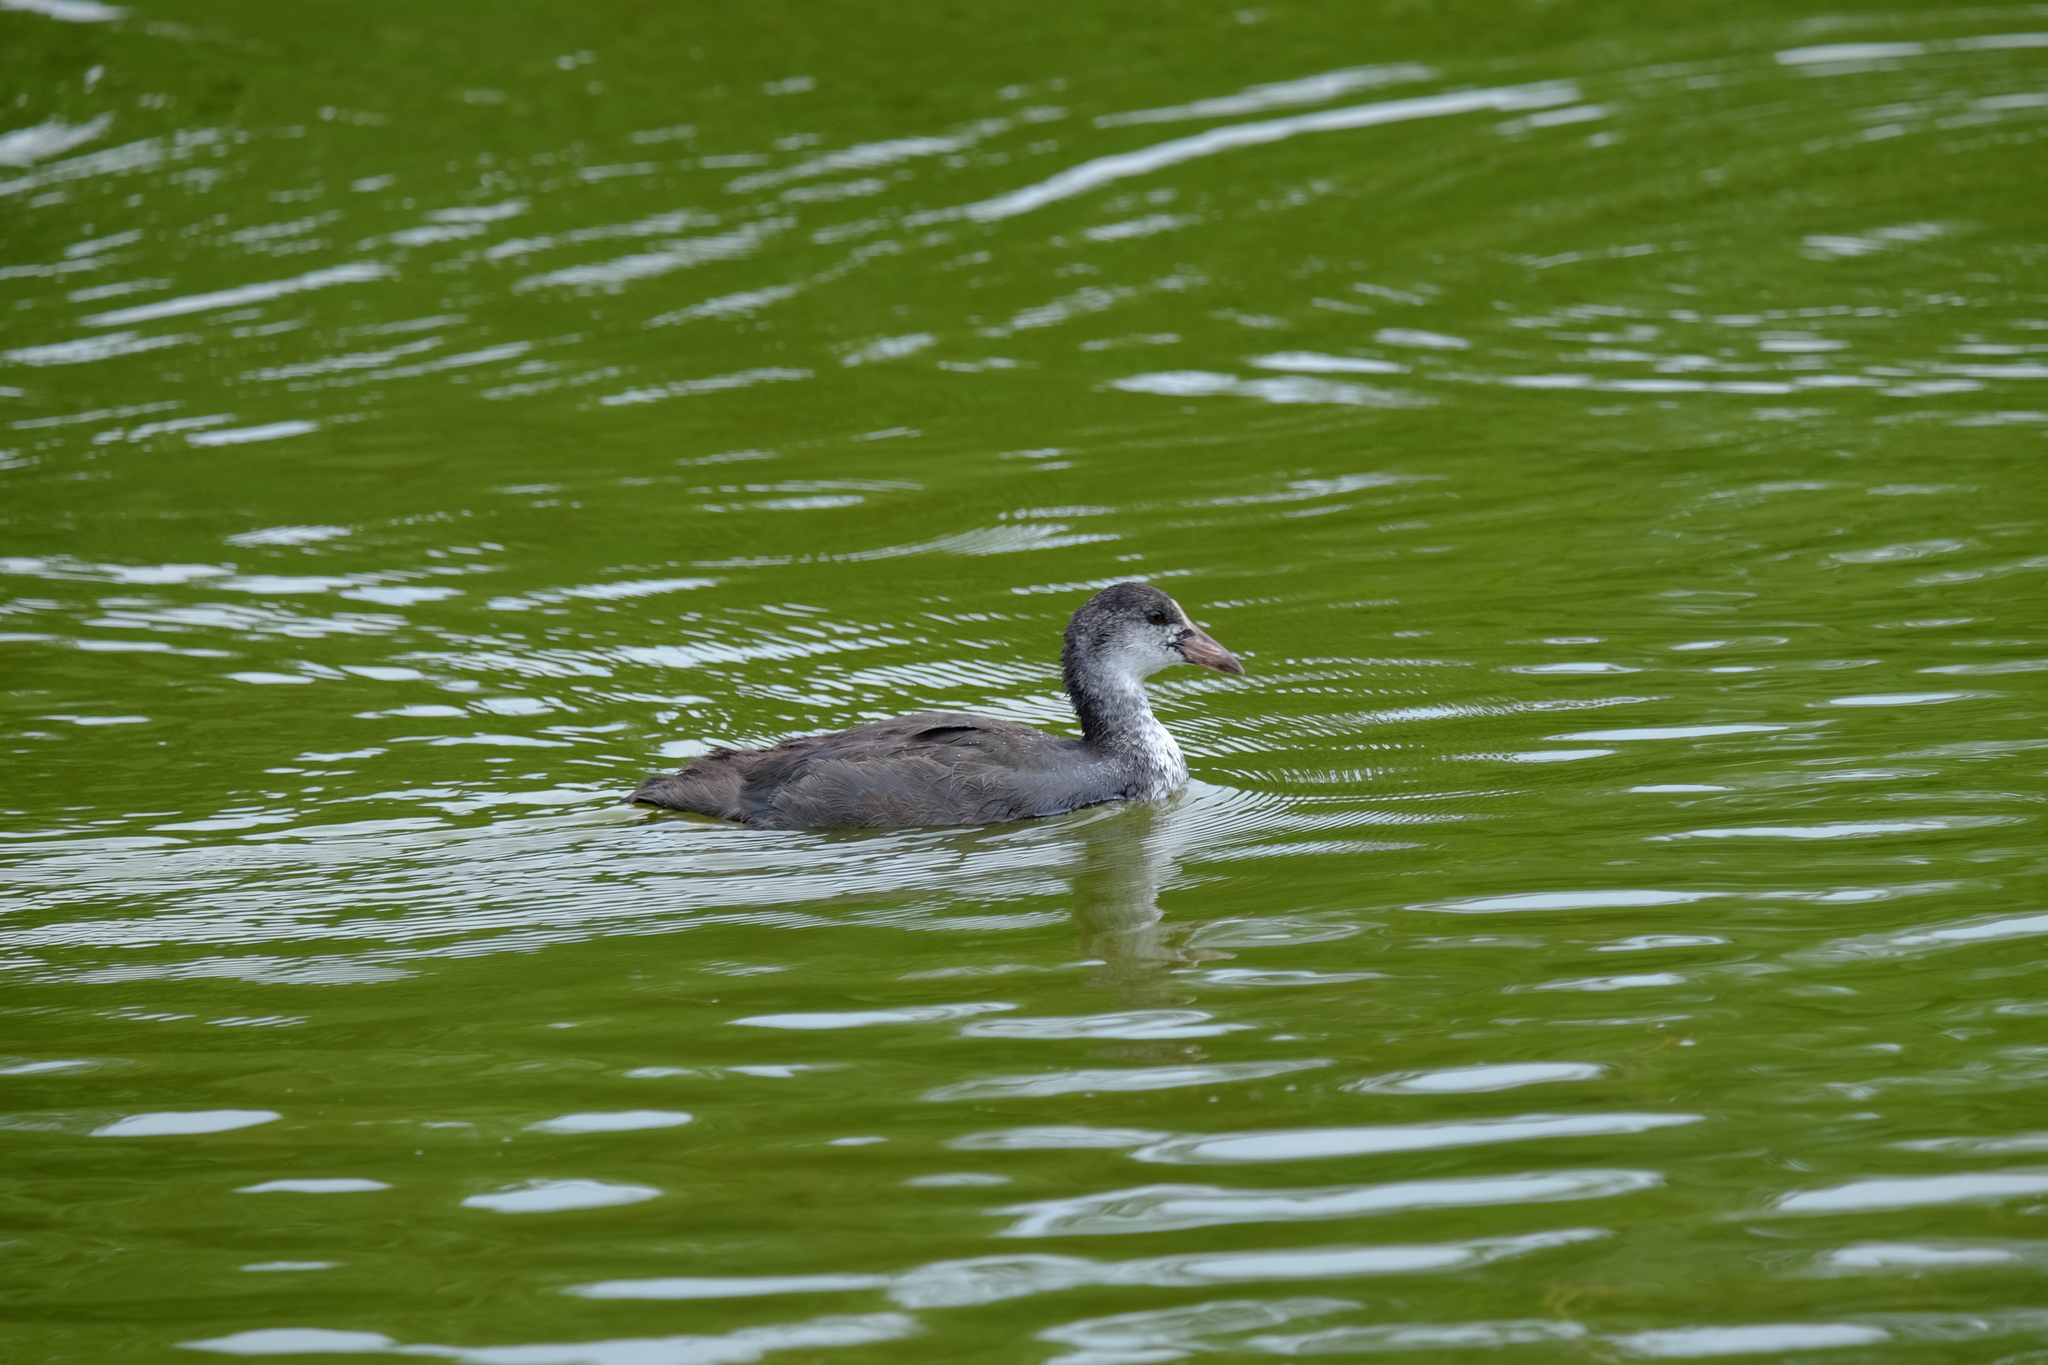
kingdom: Animalia
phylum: Chordata
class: Aves
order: Gruiformes
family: Rallidae
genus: Fulica
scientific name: Fulica atra
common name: Eurasian coot
